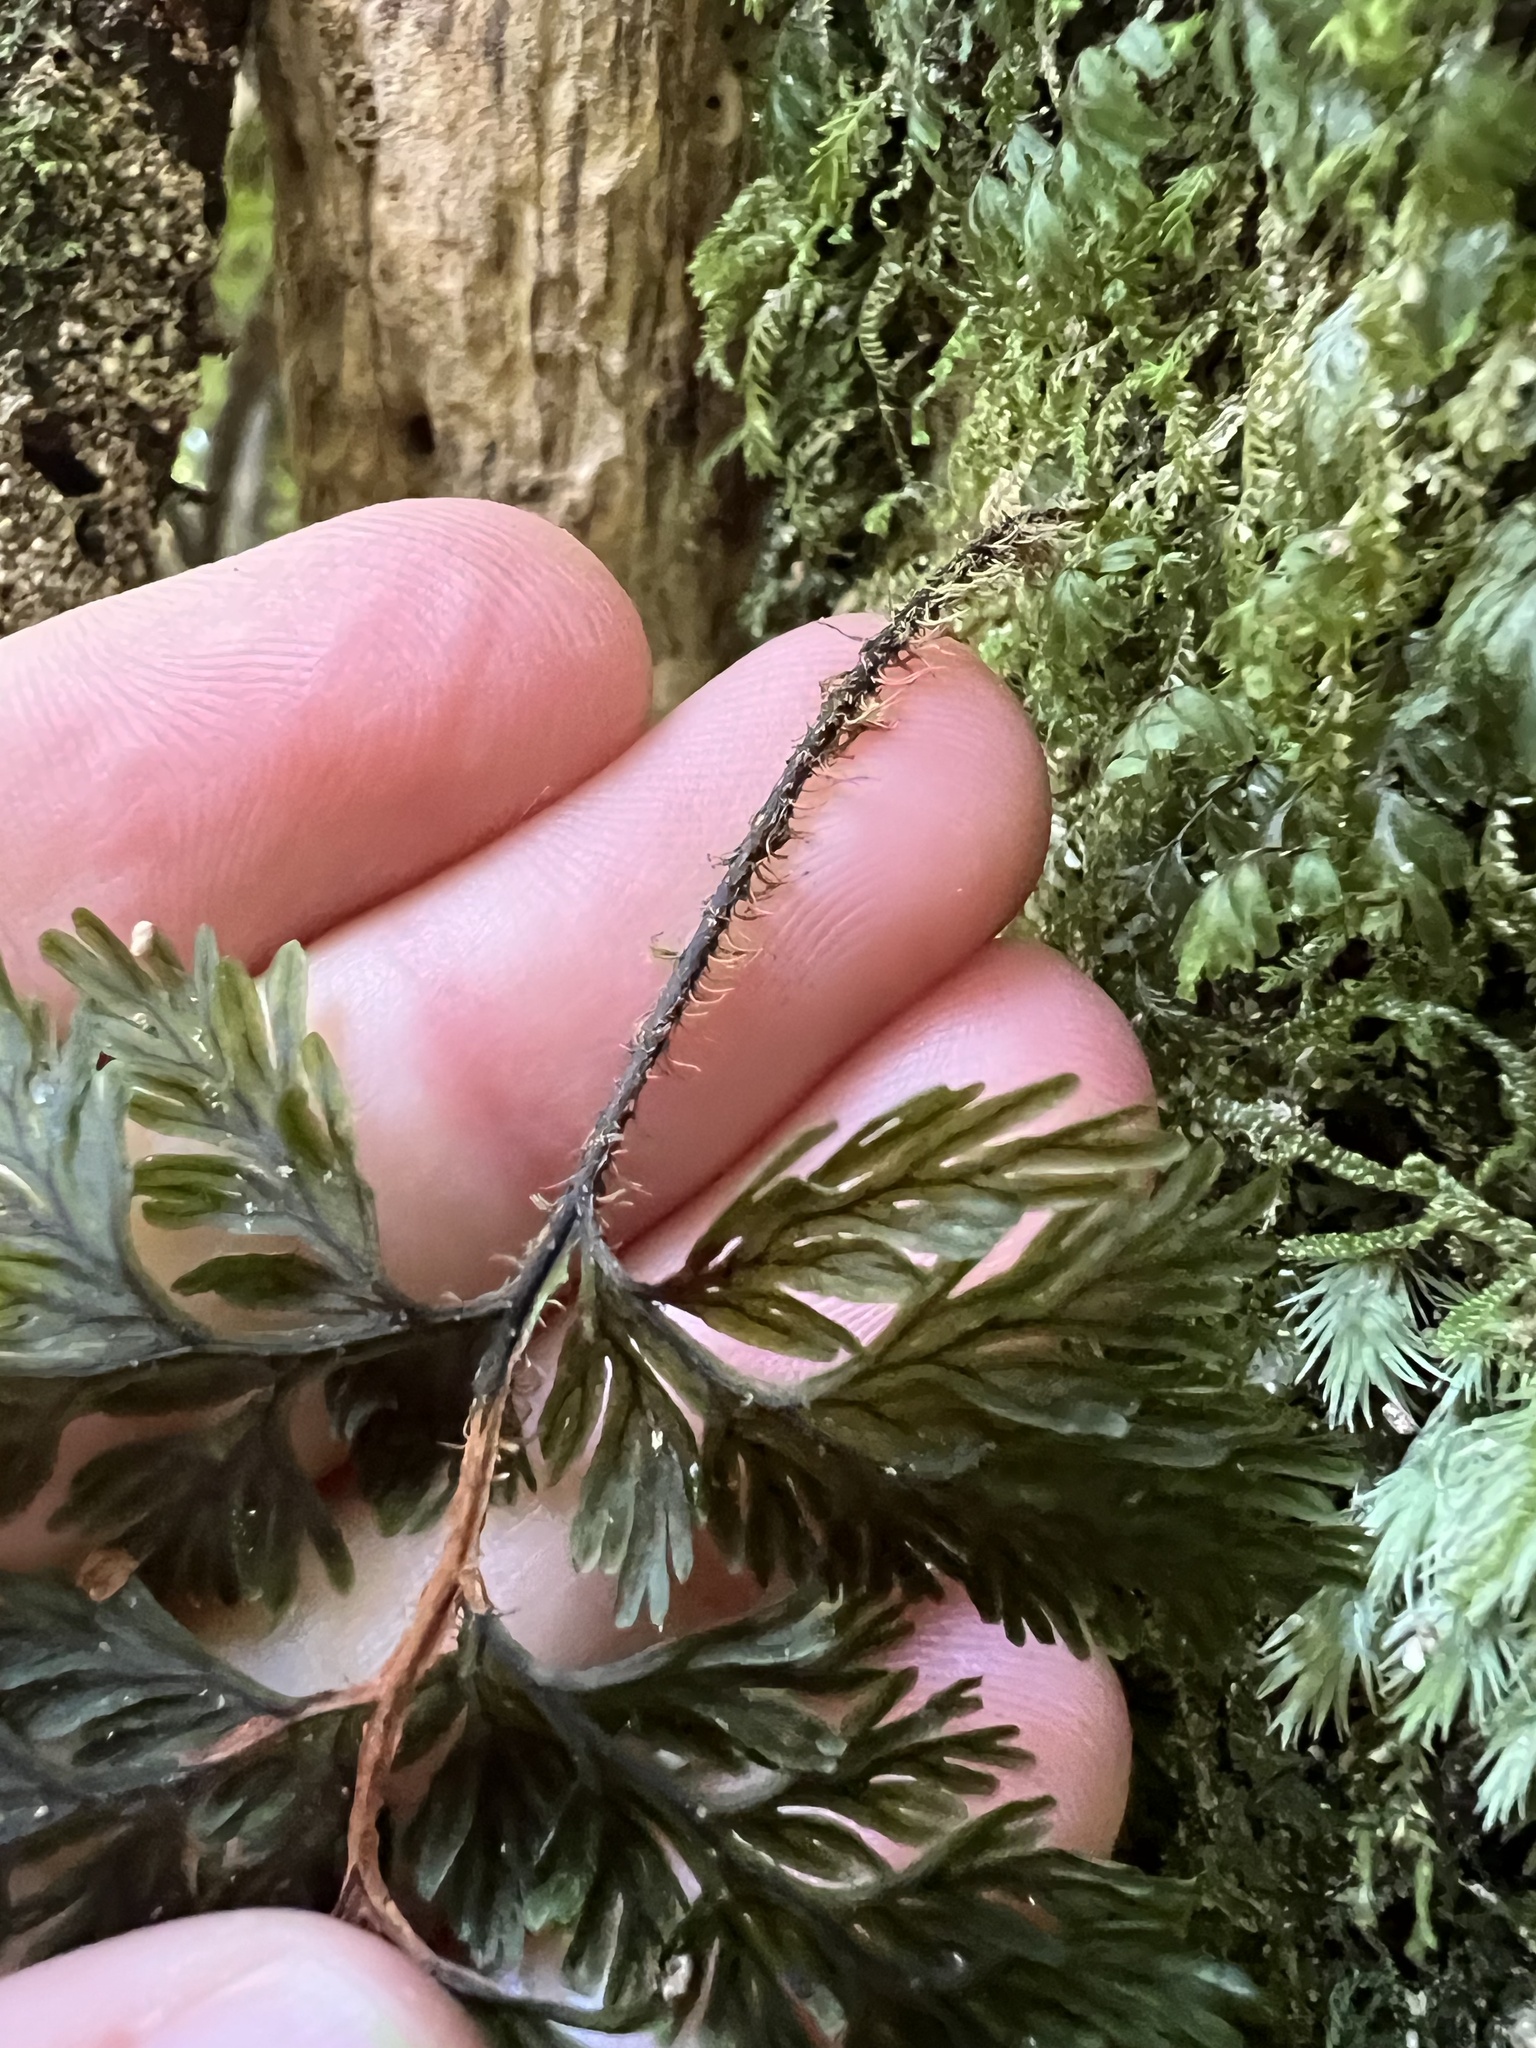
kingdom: Plantae
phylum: Tracheophyta
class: Polypodiopsida
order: Hymenophyllales
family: Hymenophyllaceae
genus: Hymenophyllum
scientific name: Hymenophyllum scabrum
